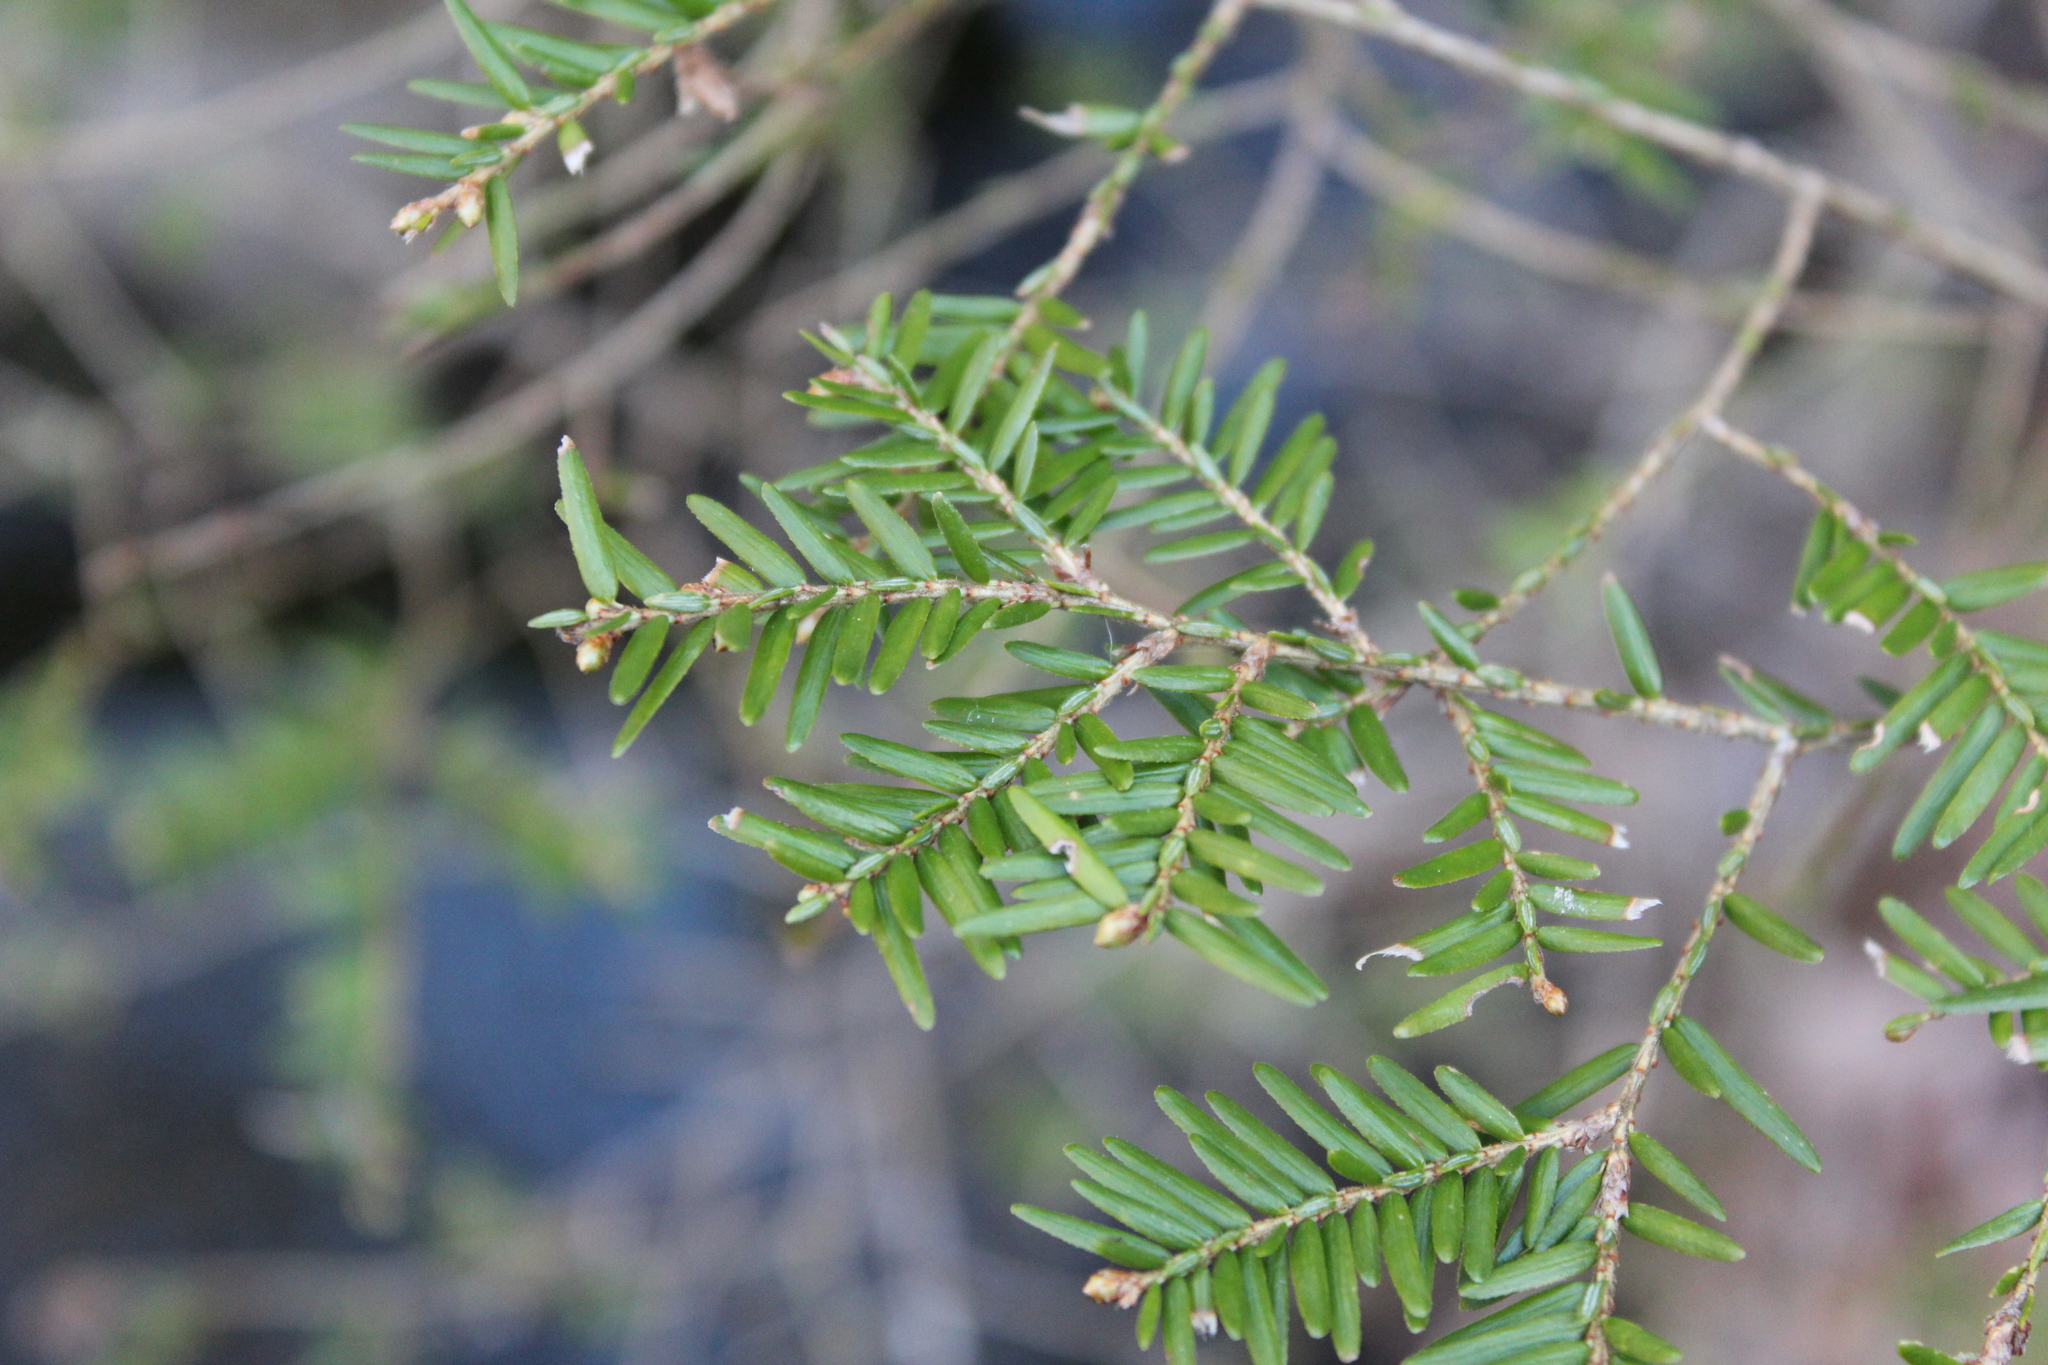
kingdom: Plantae
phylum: Tracheophyta
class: Pinopsida
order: Pinales
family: Pinaceae
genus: Tsuga
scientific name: Tsuga canadensis
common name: Eastern hemlock
